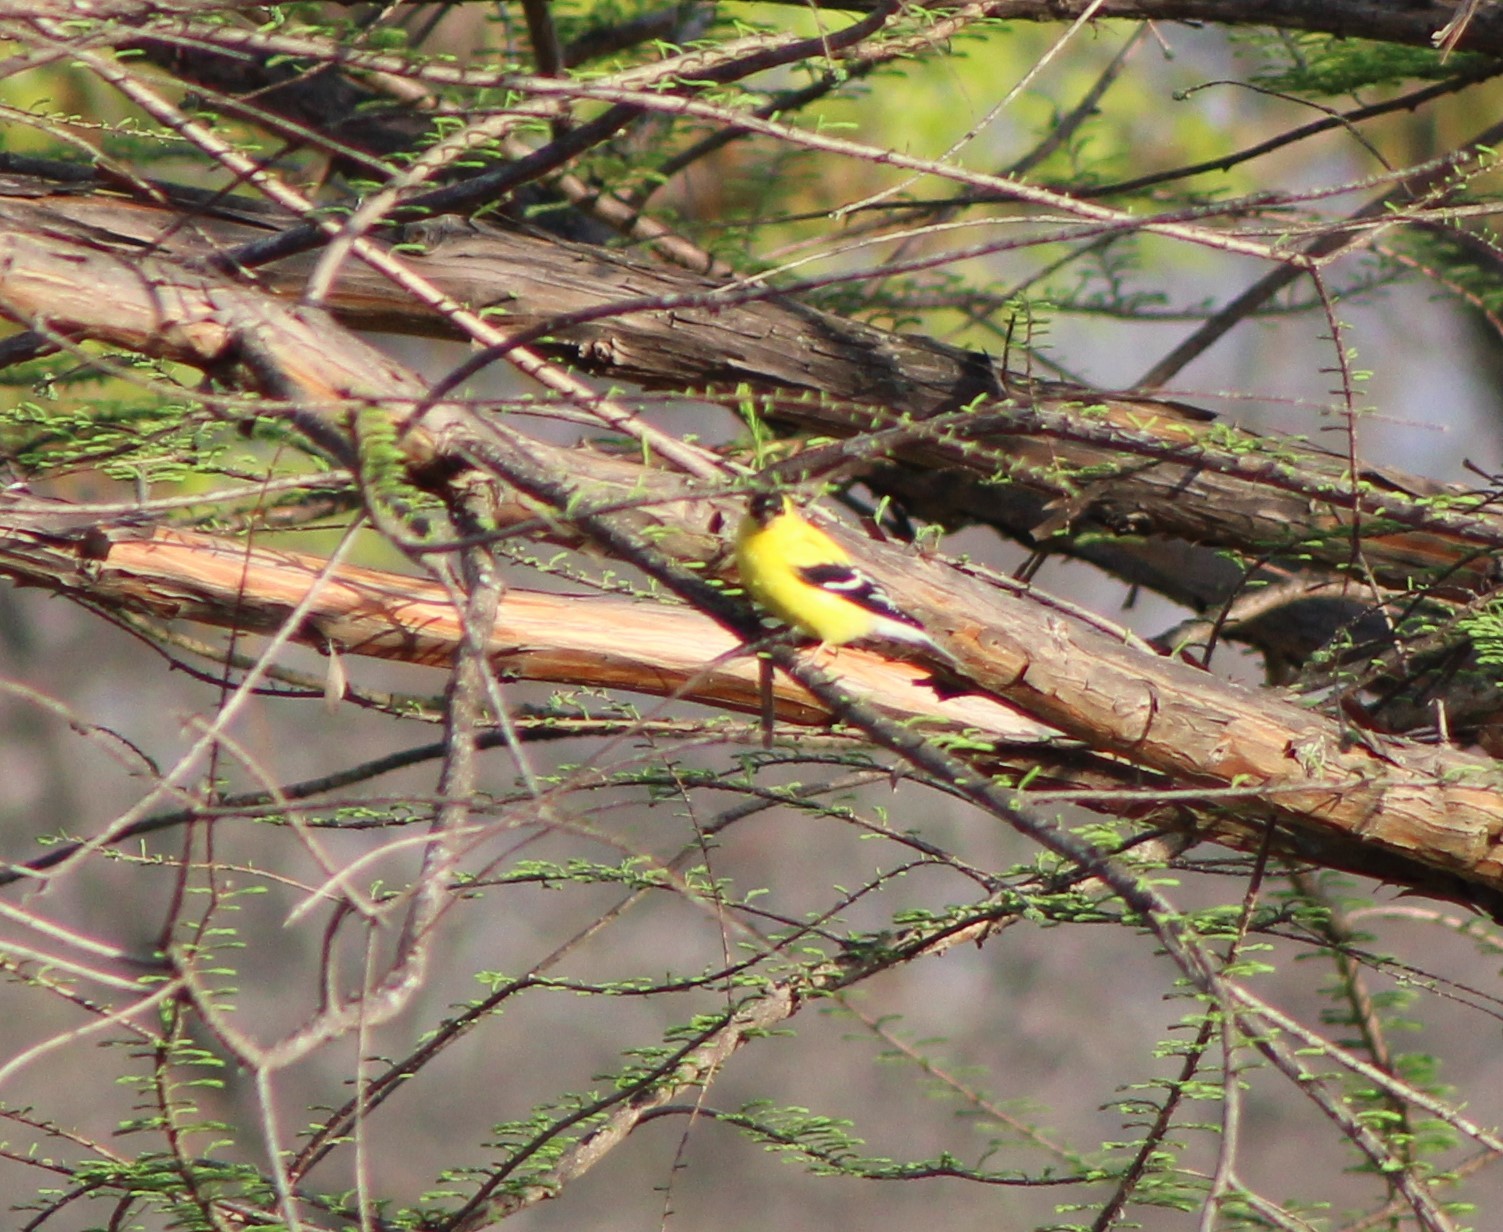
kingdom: Animalia
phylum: Chordata
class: Aves
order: Passeriformes
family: Fringillidae
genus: Spinus
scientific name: Spinus tristis
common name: American goldfinch
